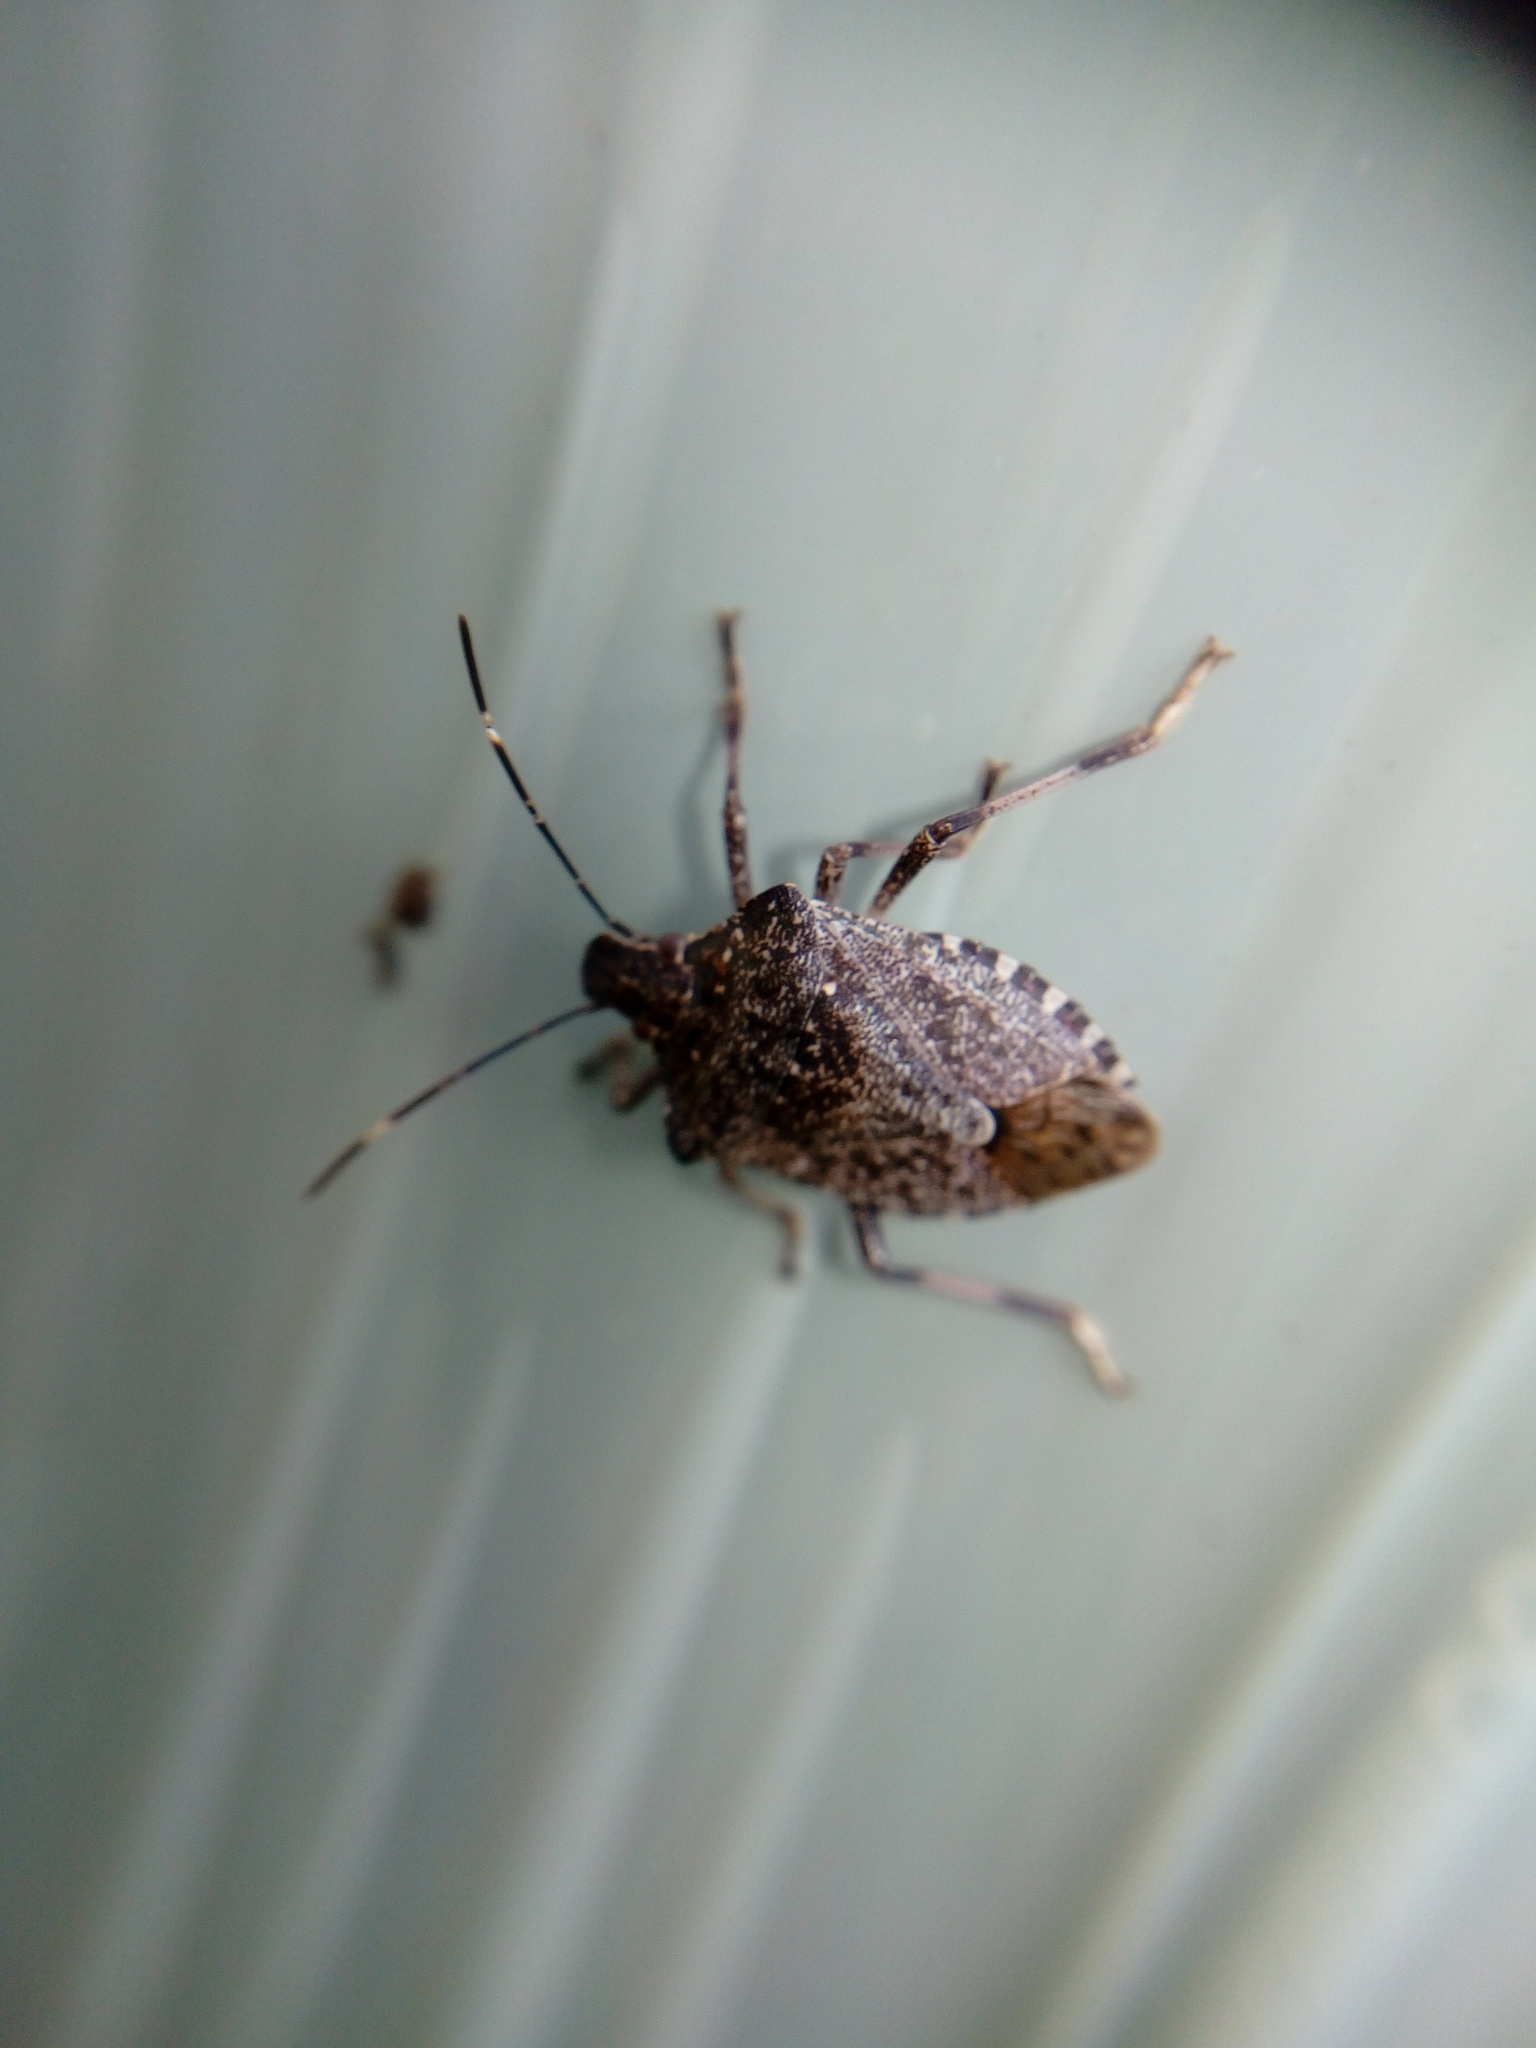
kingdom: Animalia
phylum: Arthropoda
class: Insecta
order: Hemiptera
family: Pentatomidae
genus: Halyomorpha
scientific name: Halyomorpha halys
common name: Brown marmorated stink bug
